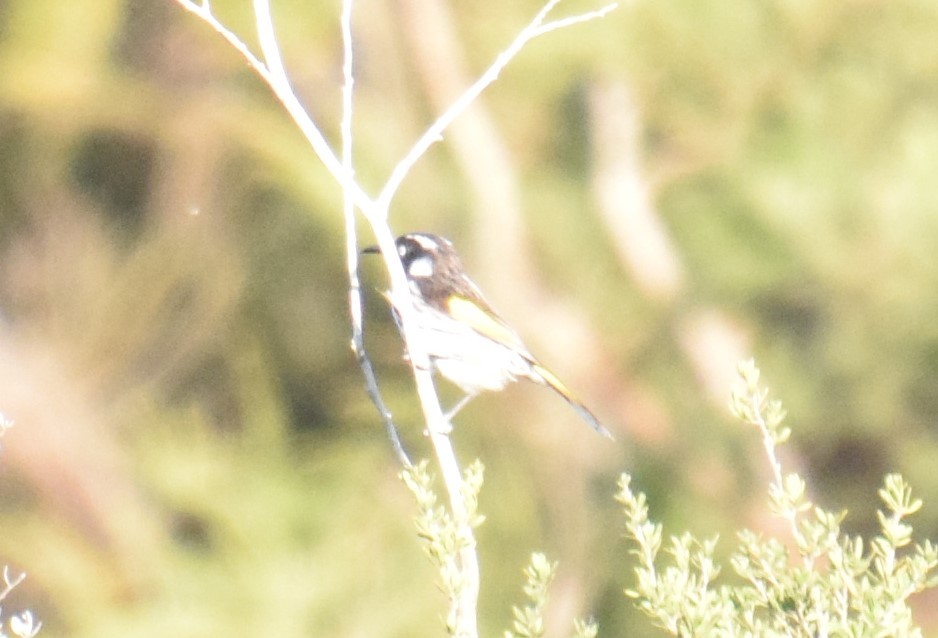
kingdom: Animalia
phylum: Chordata
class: Aves
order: Passeriformes
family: Meliphagidae
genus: Phylidonyris
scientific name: Phylidonyris novaehollandiae
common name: New holland honeyeater
